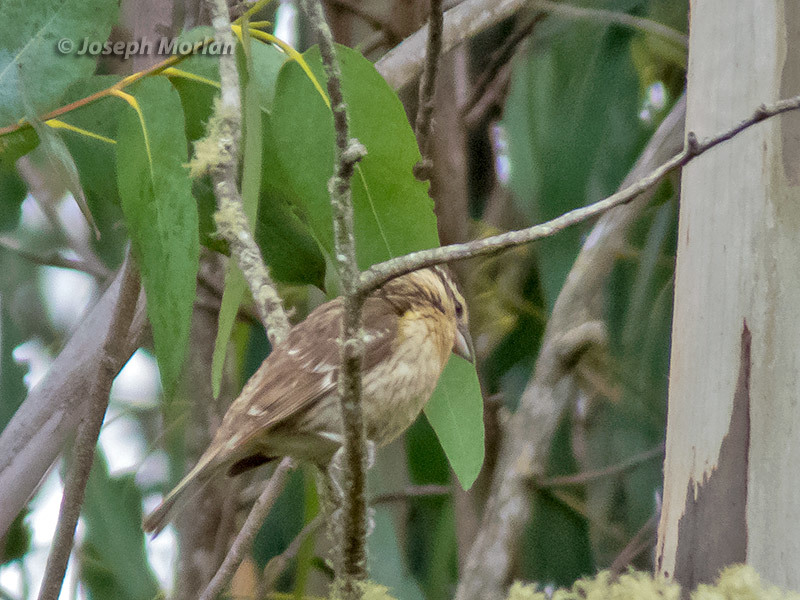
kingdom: Animalia
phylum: Chordata
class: Aves
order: Passeriformes
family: Cardinalidae
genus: Pheucticus
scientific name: Pheucticus melanocephalus
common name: Black-headed grosbeak
